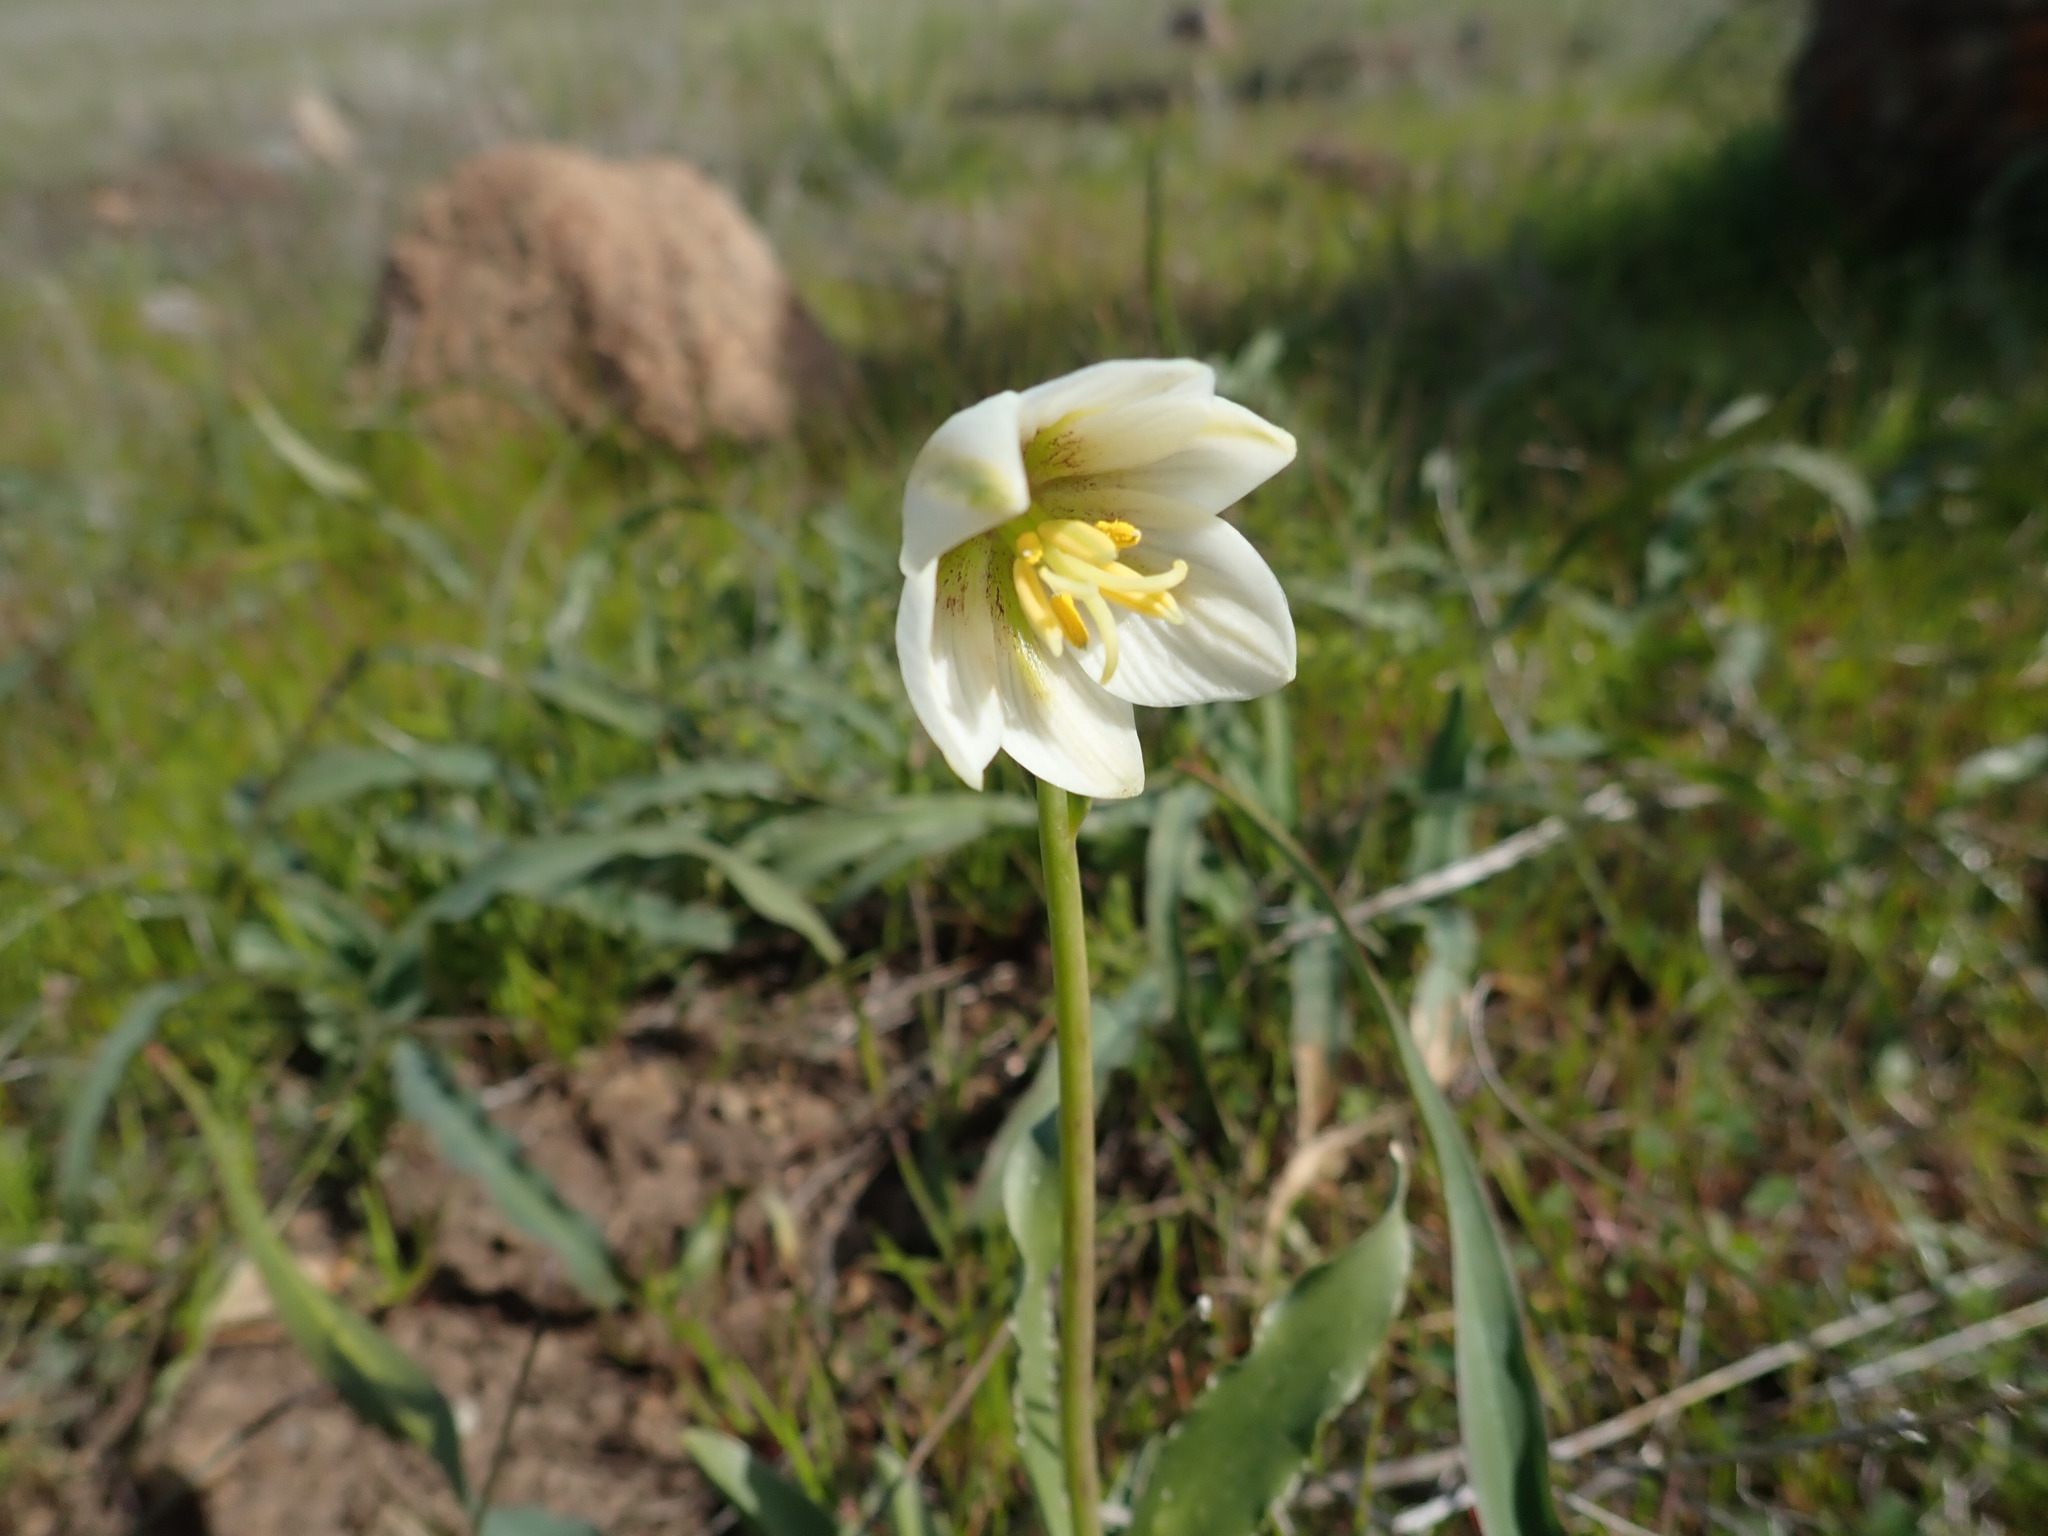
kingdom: Plantae
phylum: Tracheophyta
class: Liliopsida
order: Liliales
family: Liliaceae
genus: Fritillaria
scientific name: Fritillaria liliacea
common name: Fragrant fritillary
